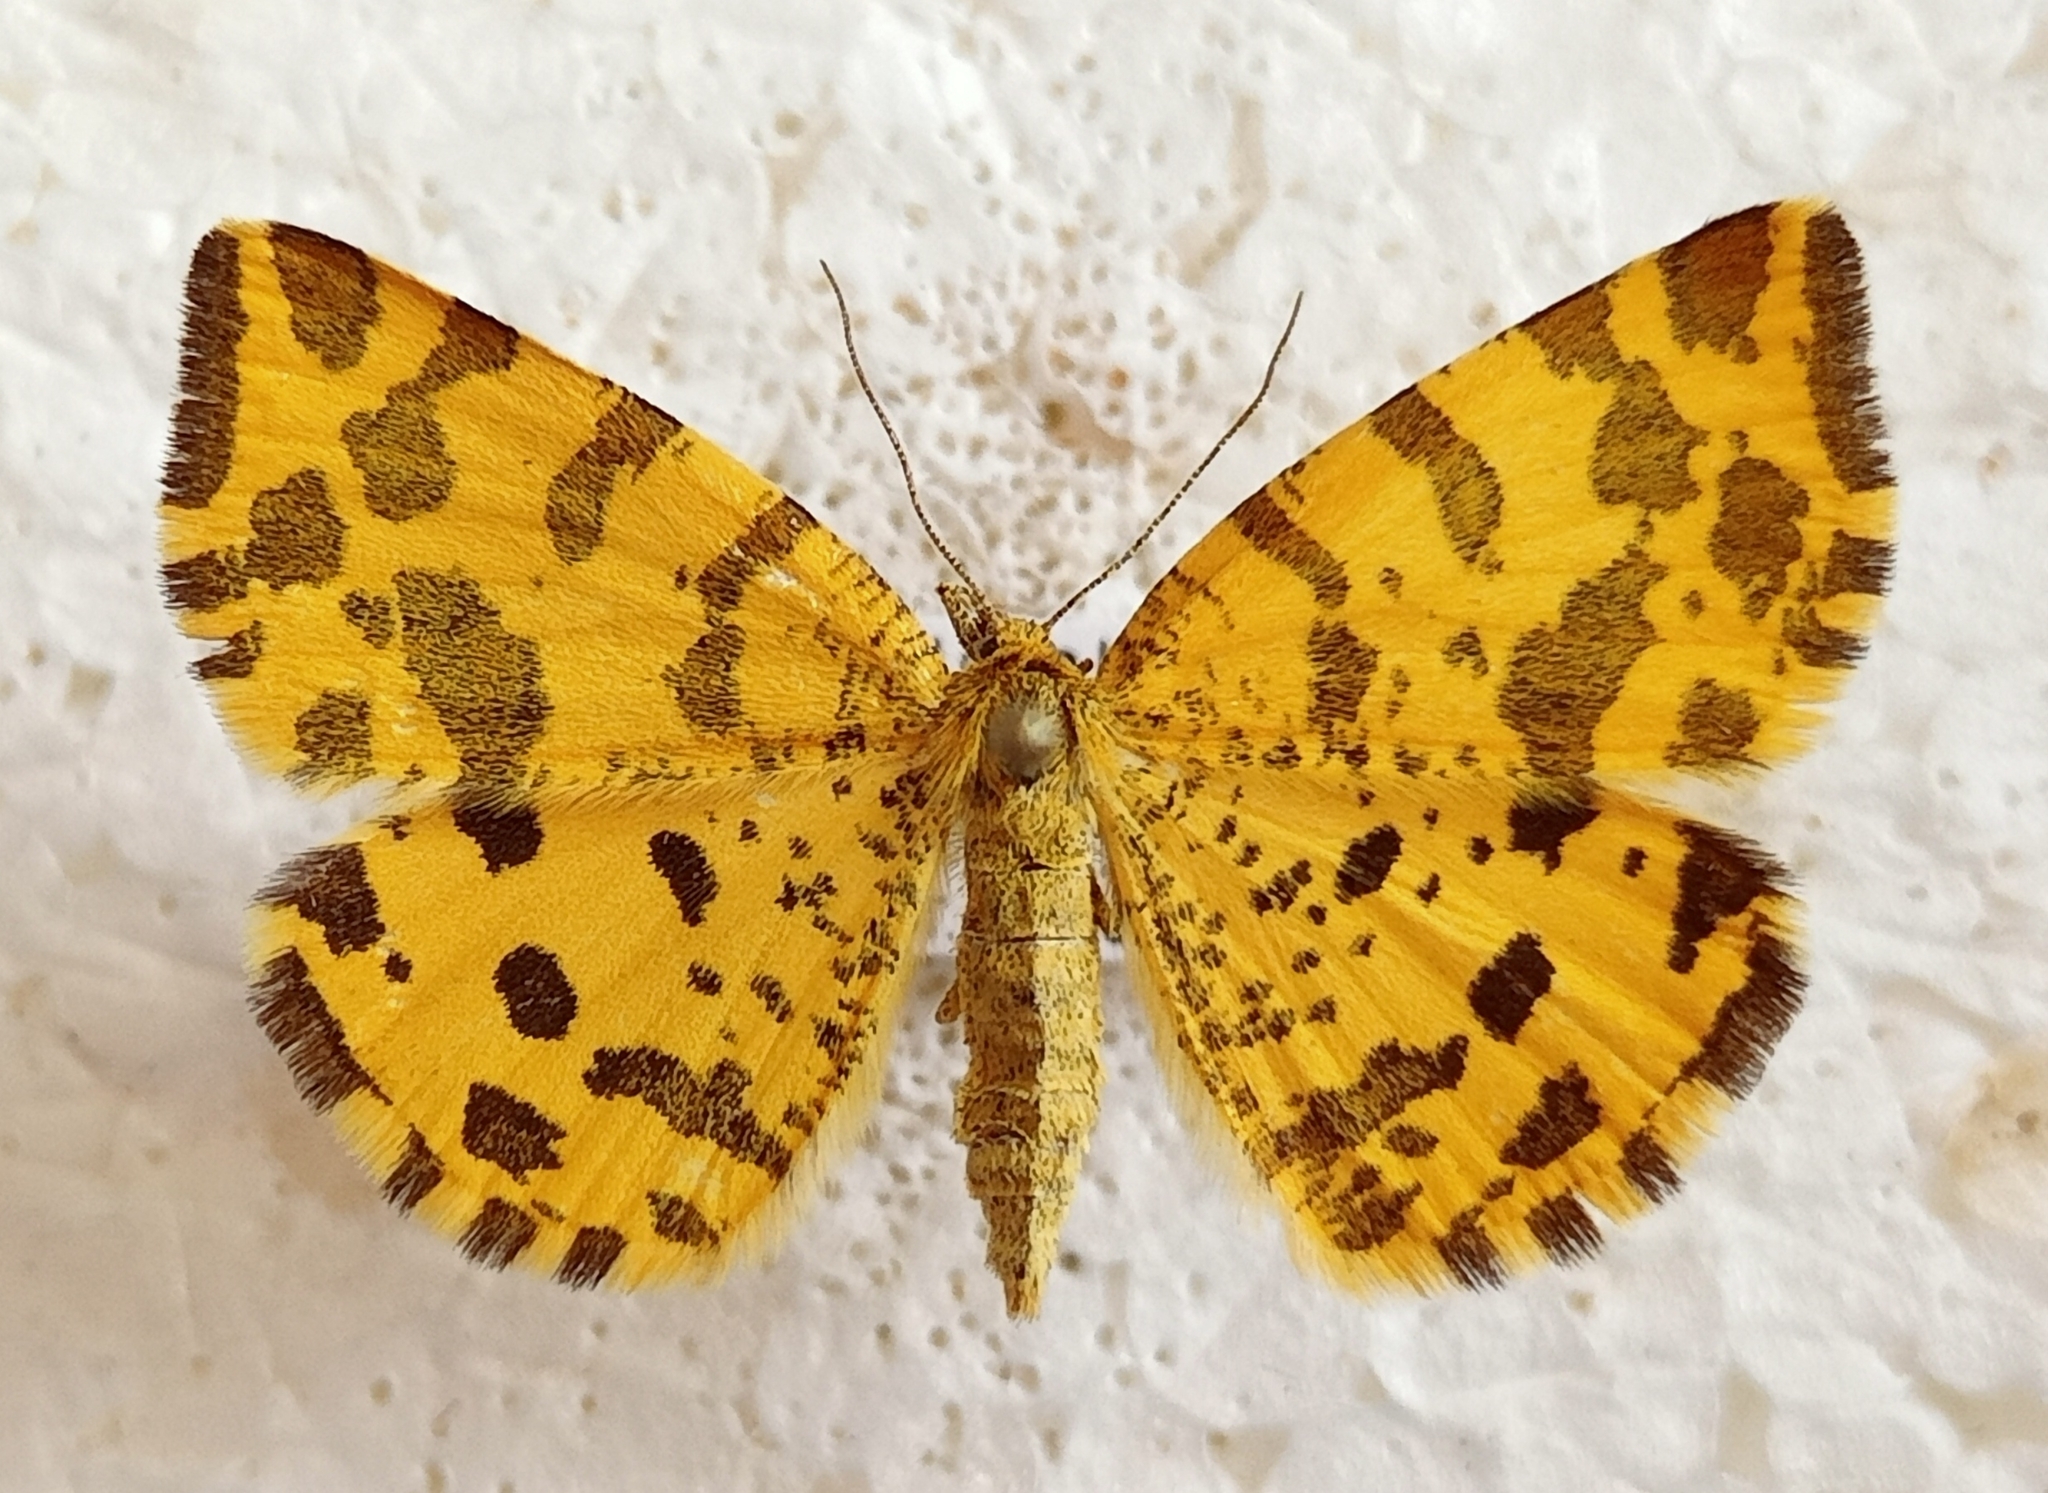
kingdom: Animalia
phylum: Arthropoda
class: Insecta
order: Lepidoptera
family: Geometridae
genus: Pseudopanthera
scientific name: Pseudopanthera macularia
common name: Speckled yellow
